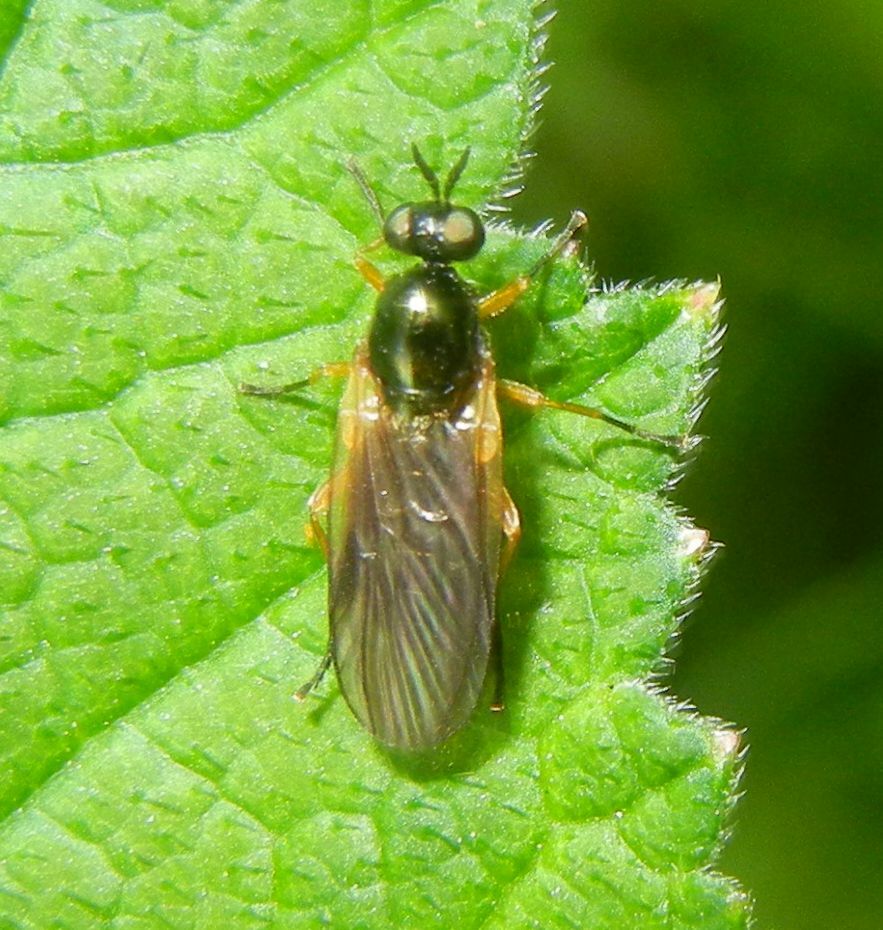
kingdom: Animalia
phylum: Arthropoda
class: Insecta
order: Diptera
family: Stratiomyidae
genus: Beris
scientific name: Beris chalybata
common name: Murky-legged black legionnaire
